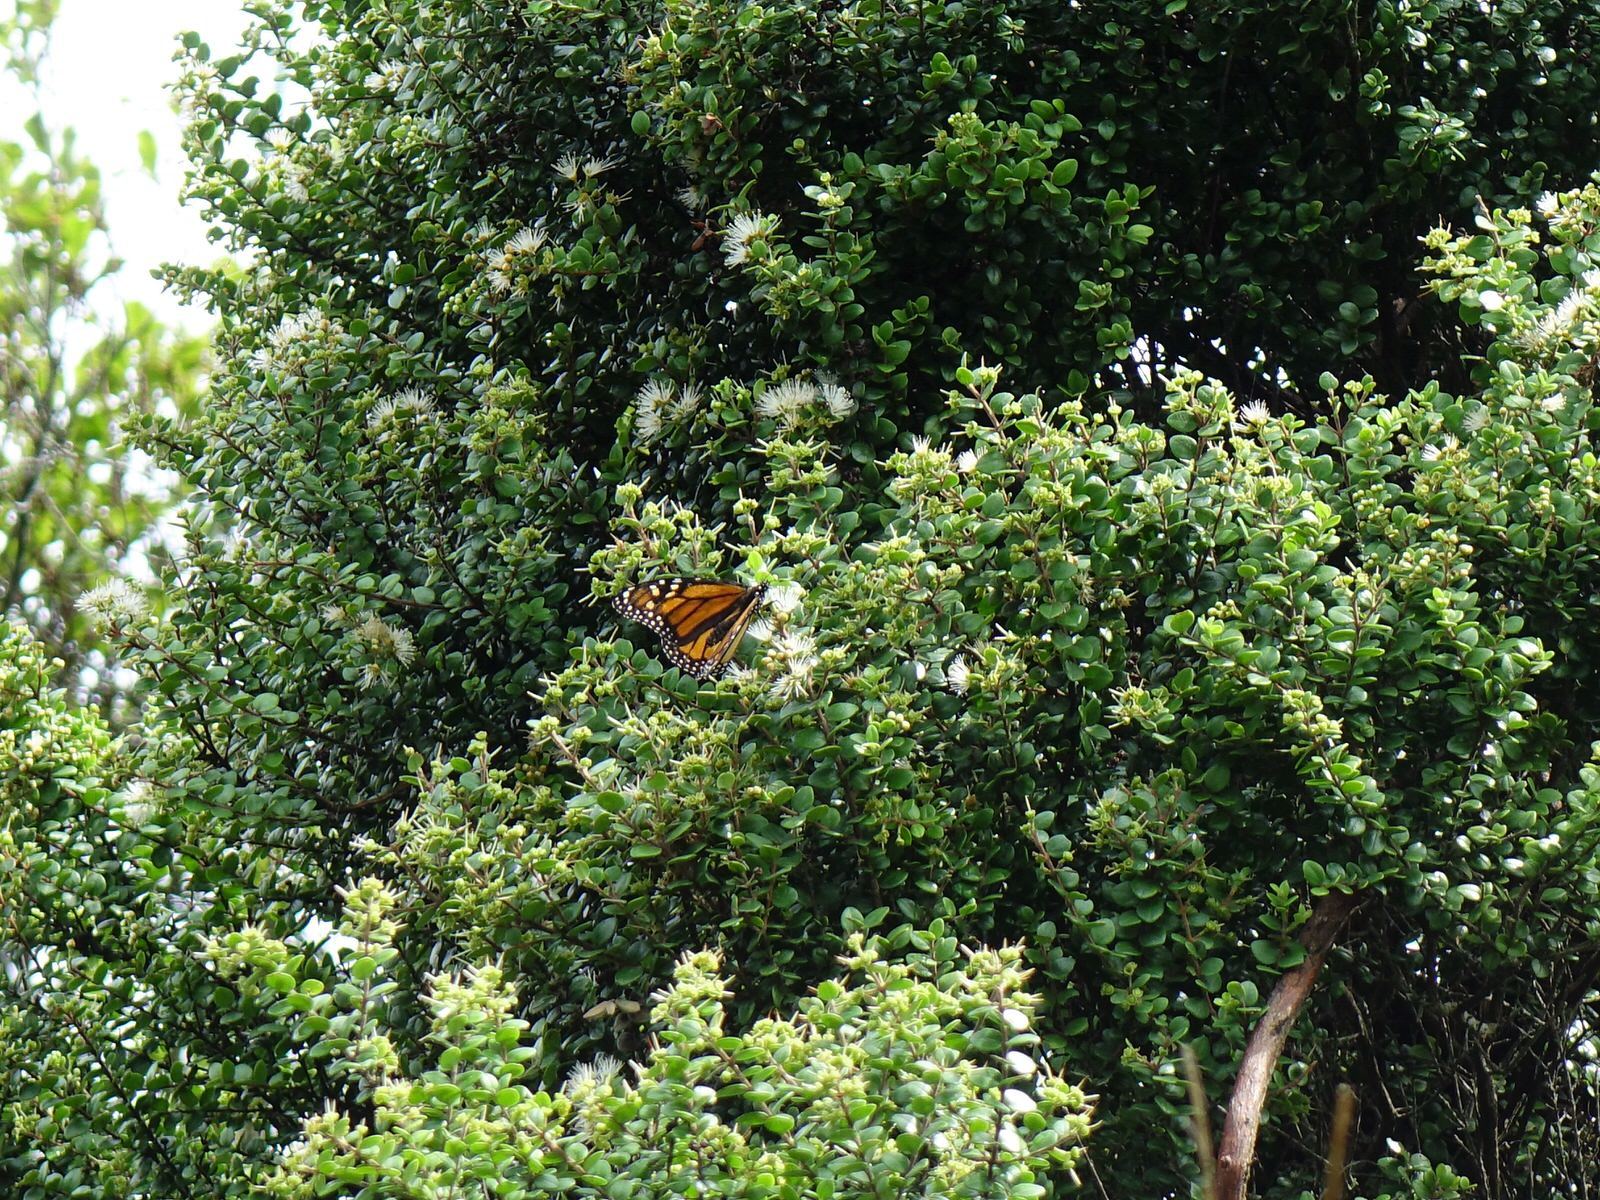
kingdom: Animalia
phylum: Arthropoda
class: Insecta
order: Lepidoptera
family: Nymphalidae
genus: Danaus
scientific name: Danaus plexippus
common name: Monarch
